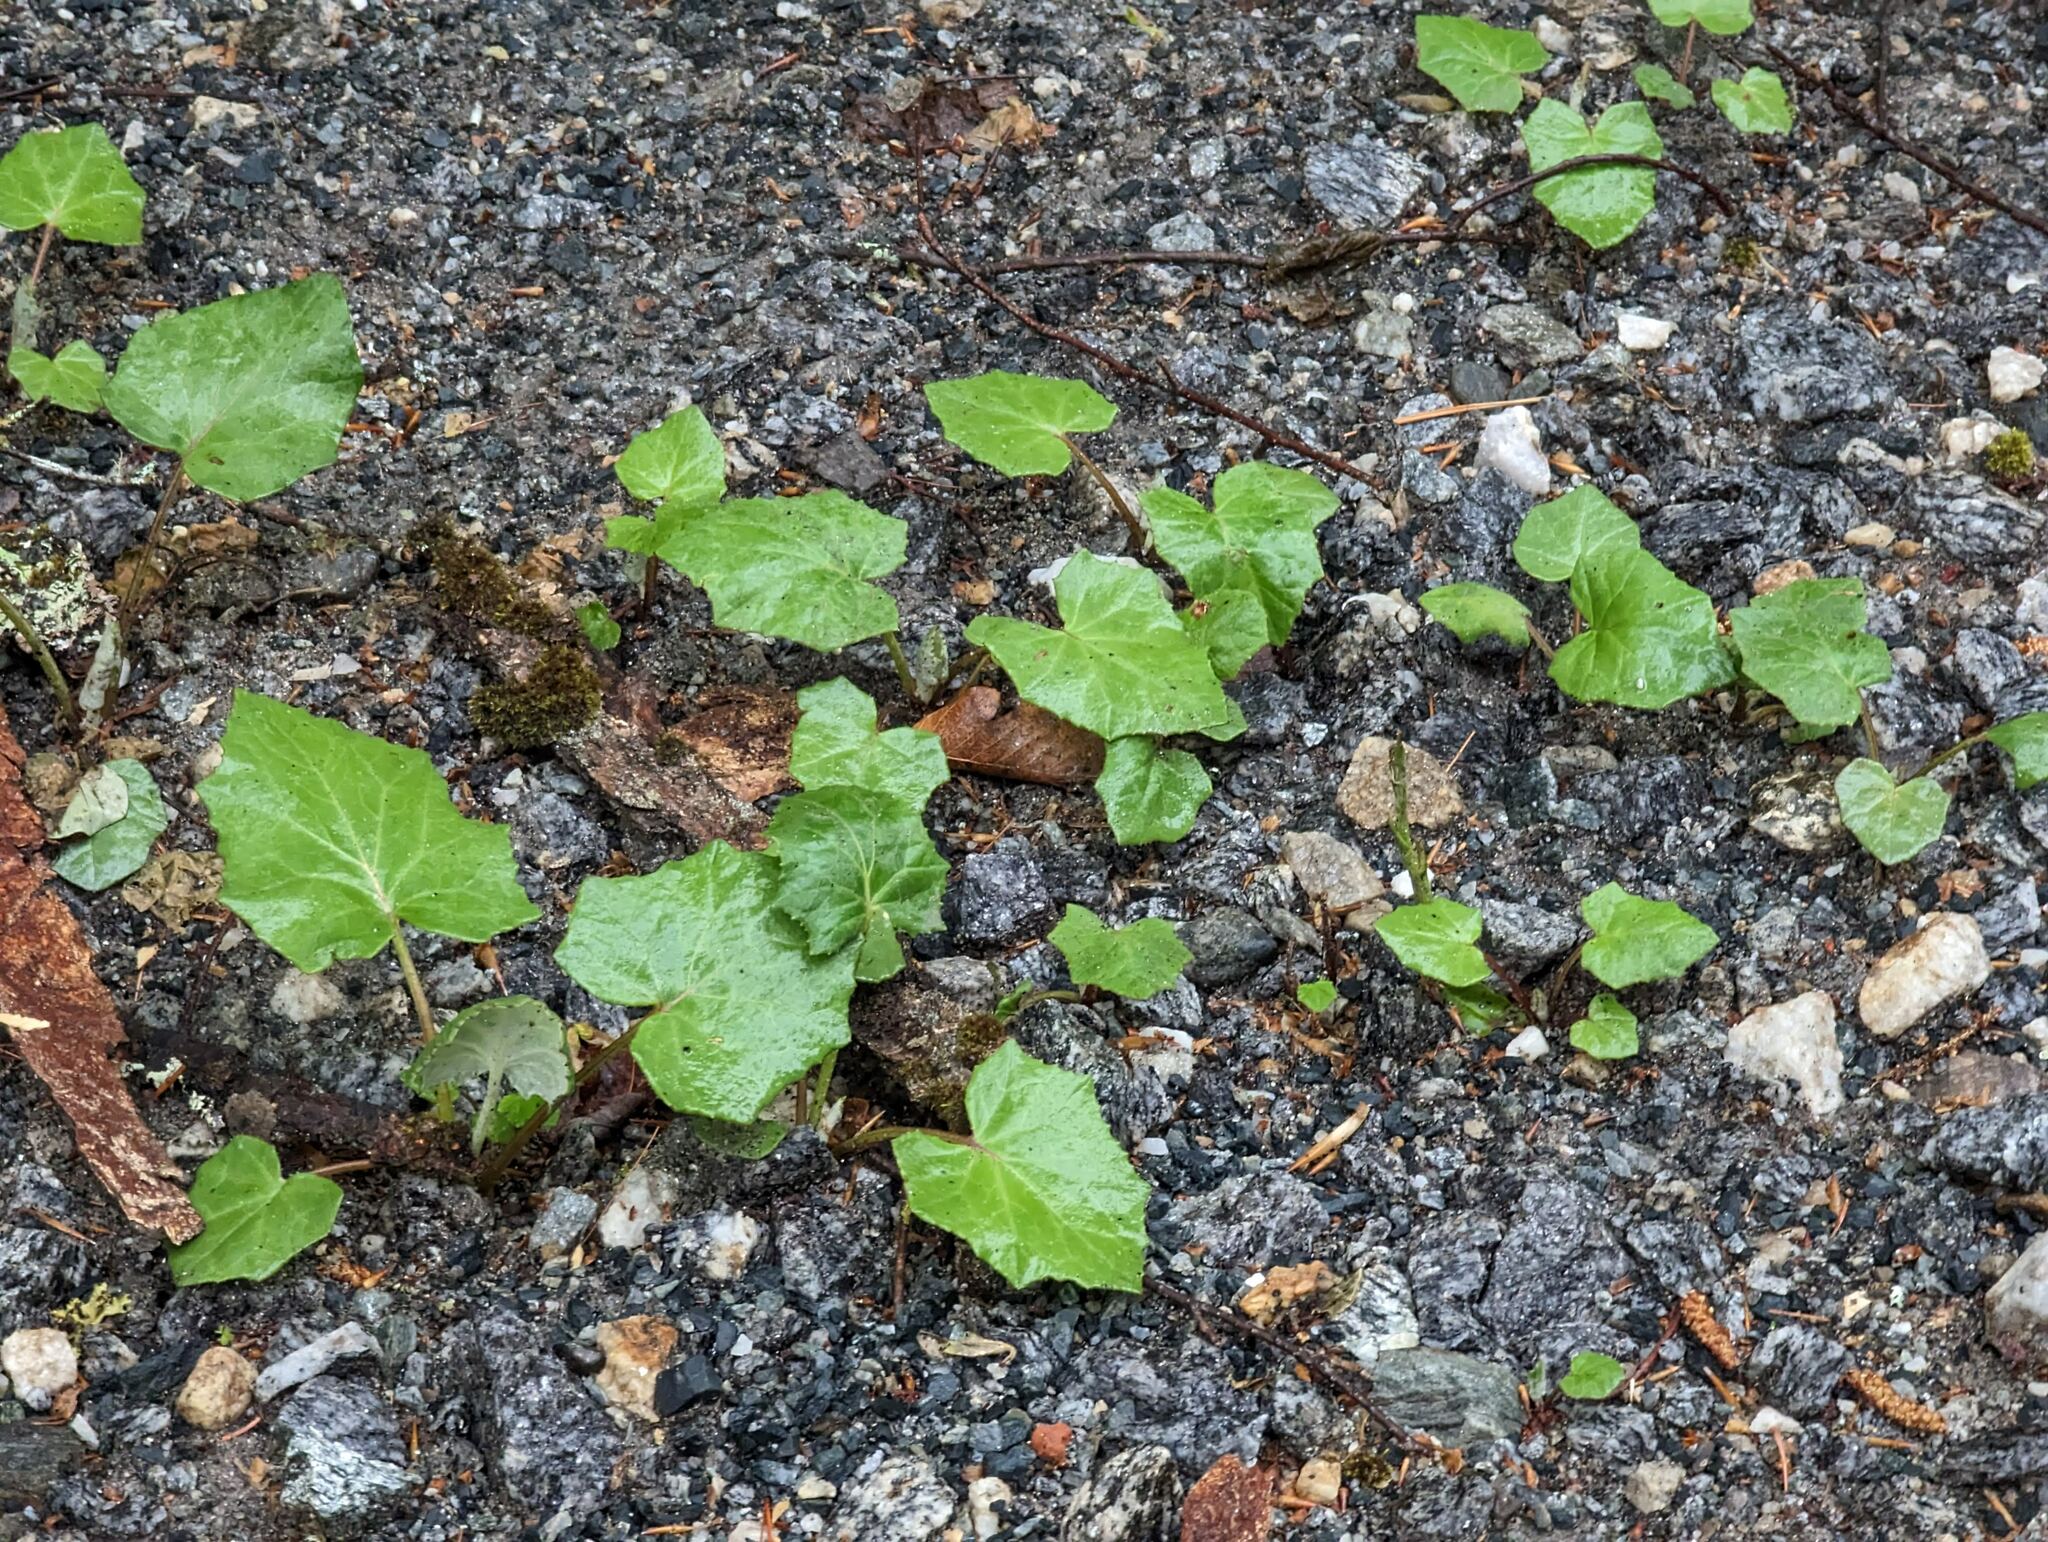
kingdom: Plantae
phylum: Tracheophyta
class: Magnoliopsida
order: Asterales
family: Asteraceae
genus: Tussilago
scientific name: Tussilago farfara
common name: Coltsfoot
